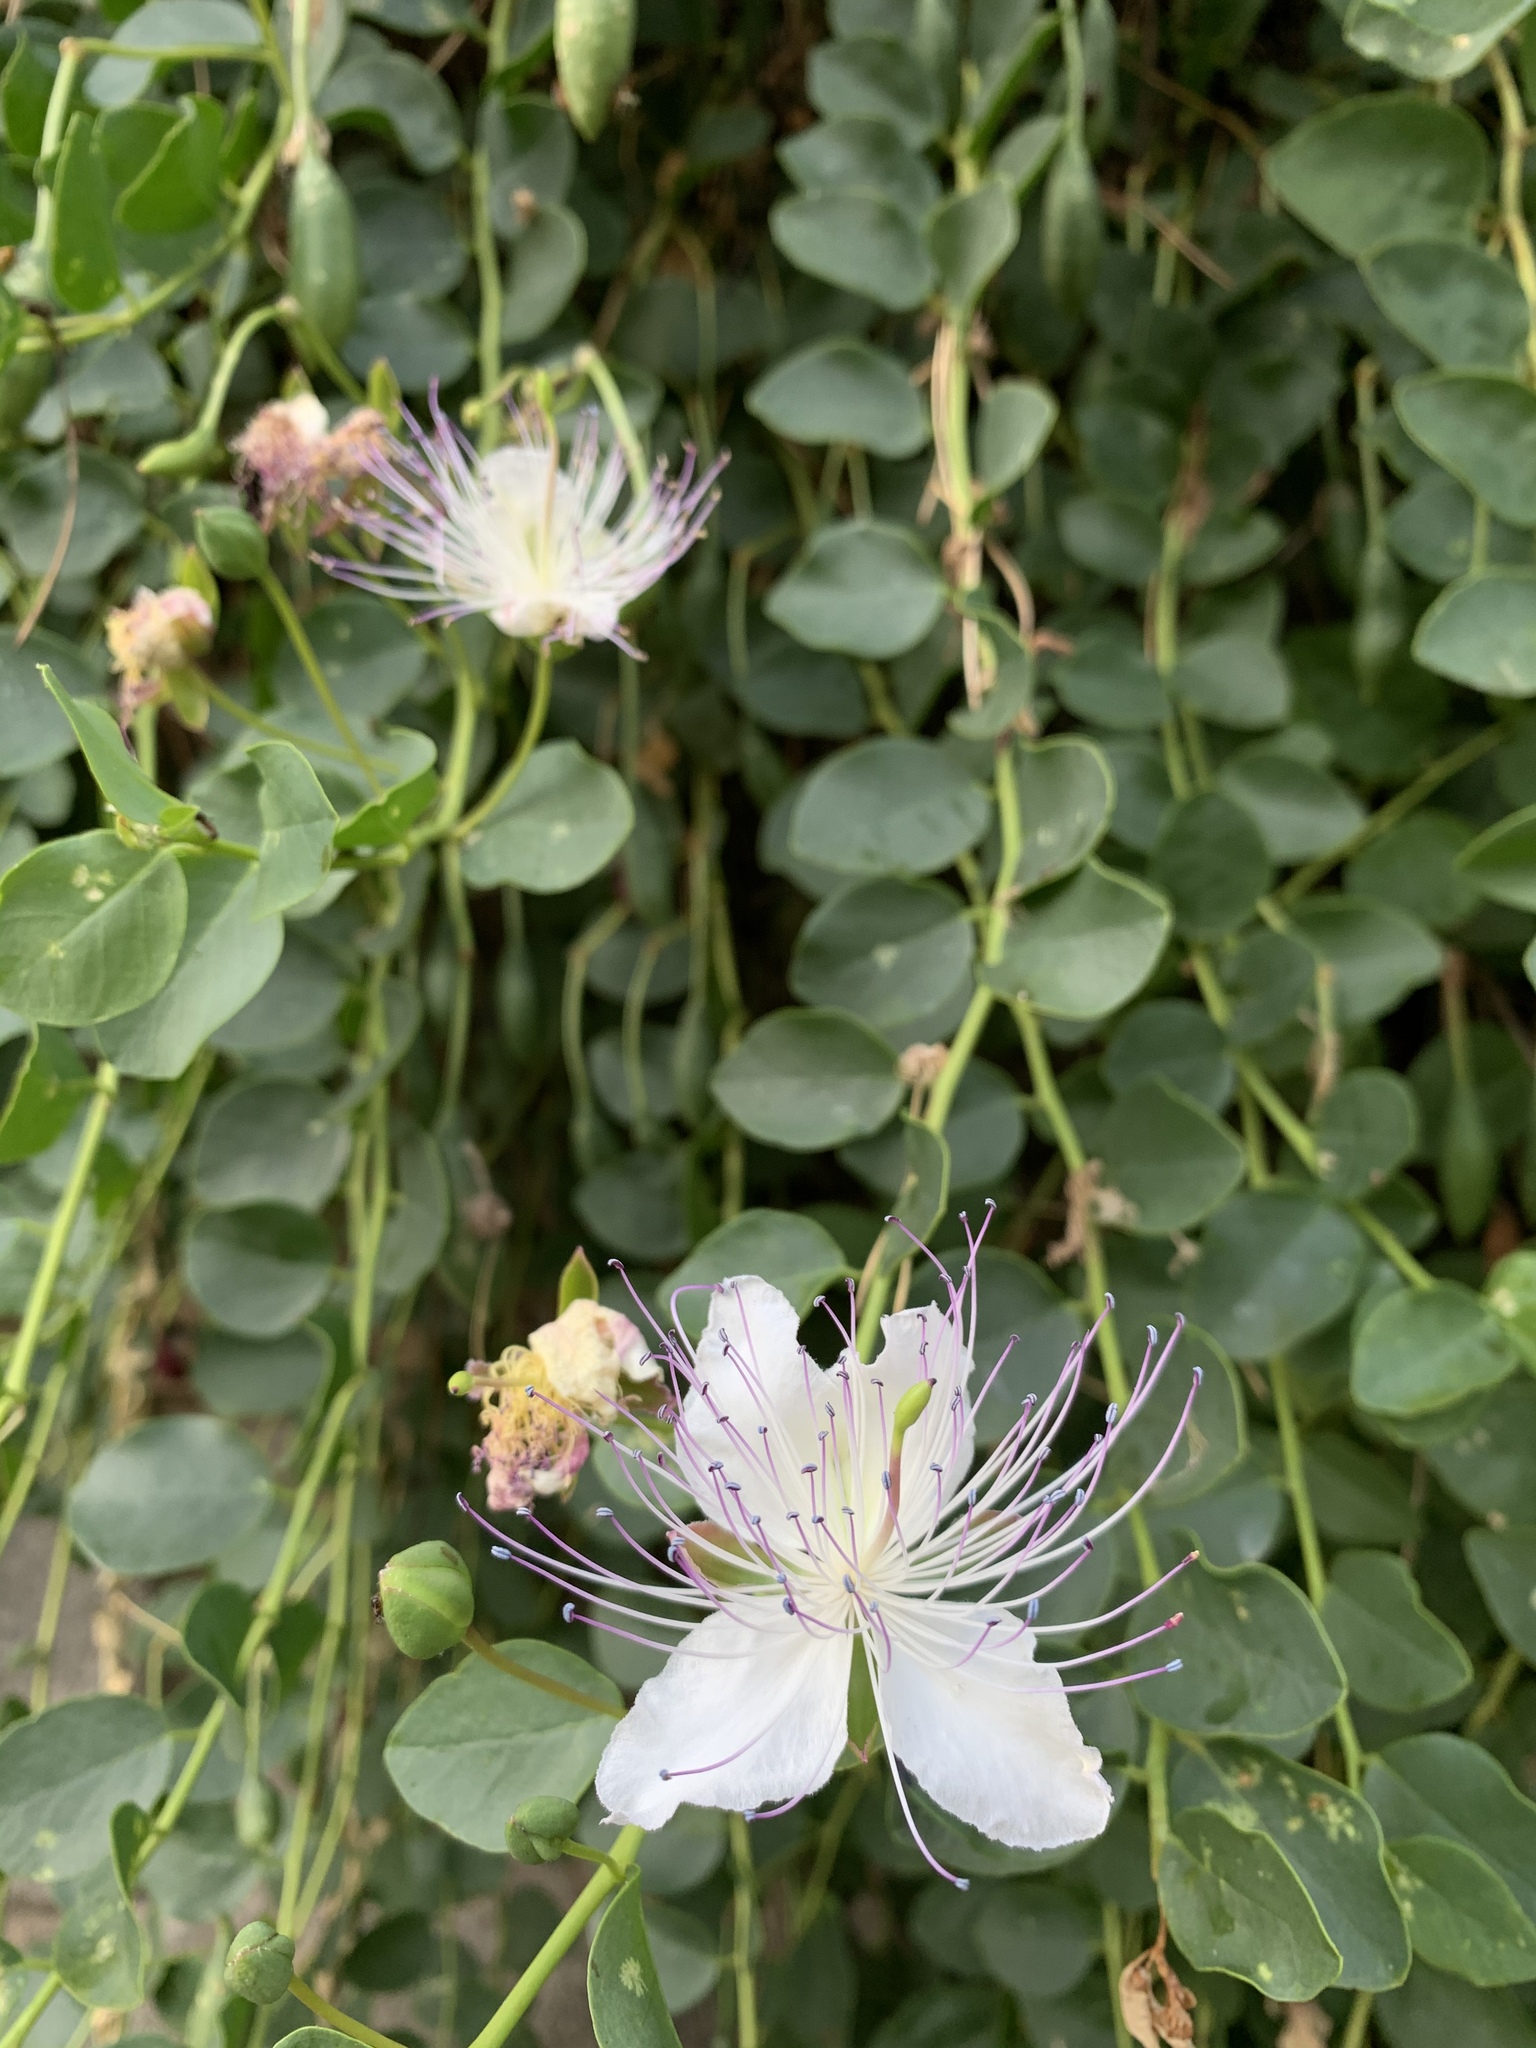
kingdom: Plantae
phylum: Tracheophyta
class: Magnoliopsida
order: Brassicales
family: Capparaceae
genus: Capparis
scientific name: Capparis orientalis
